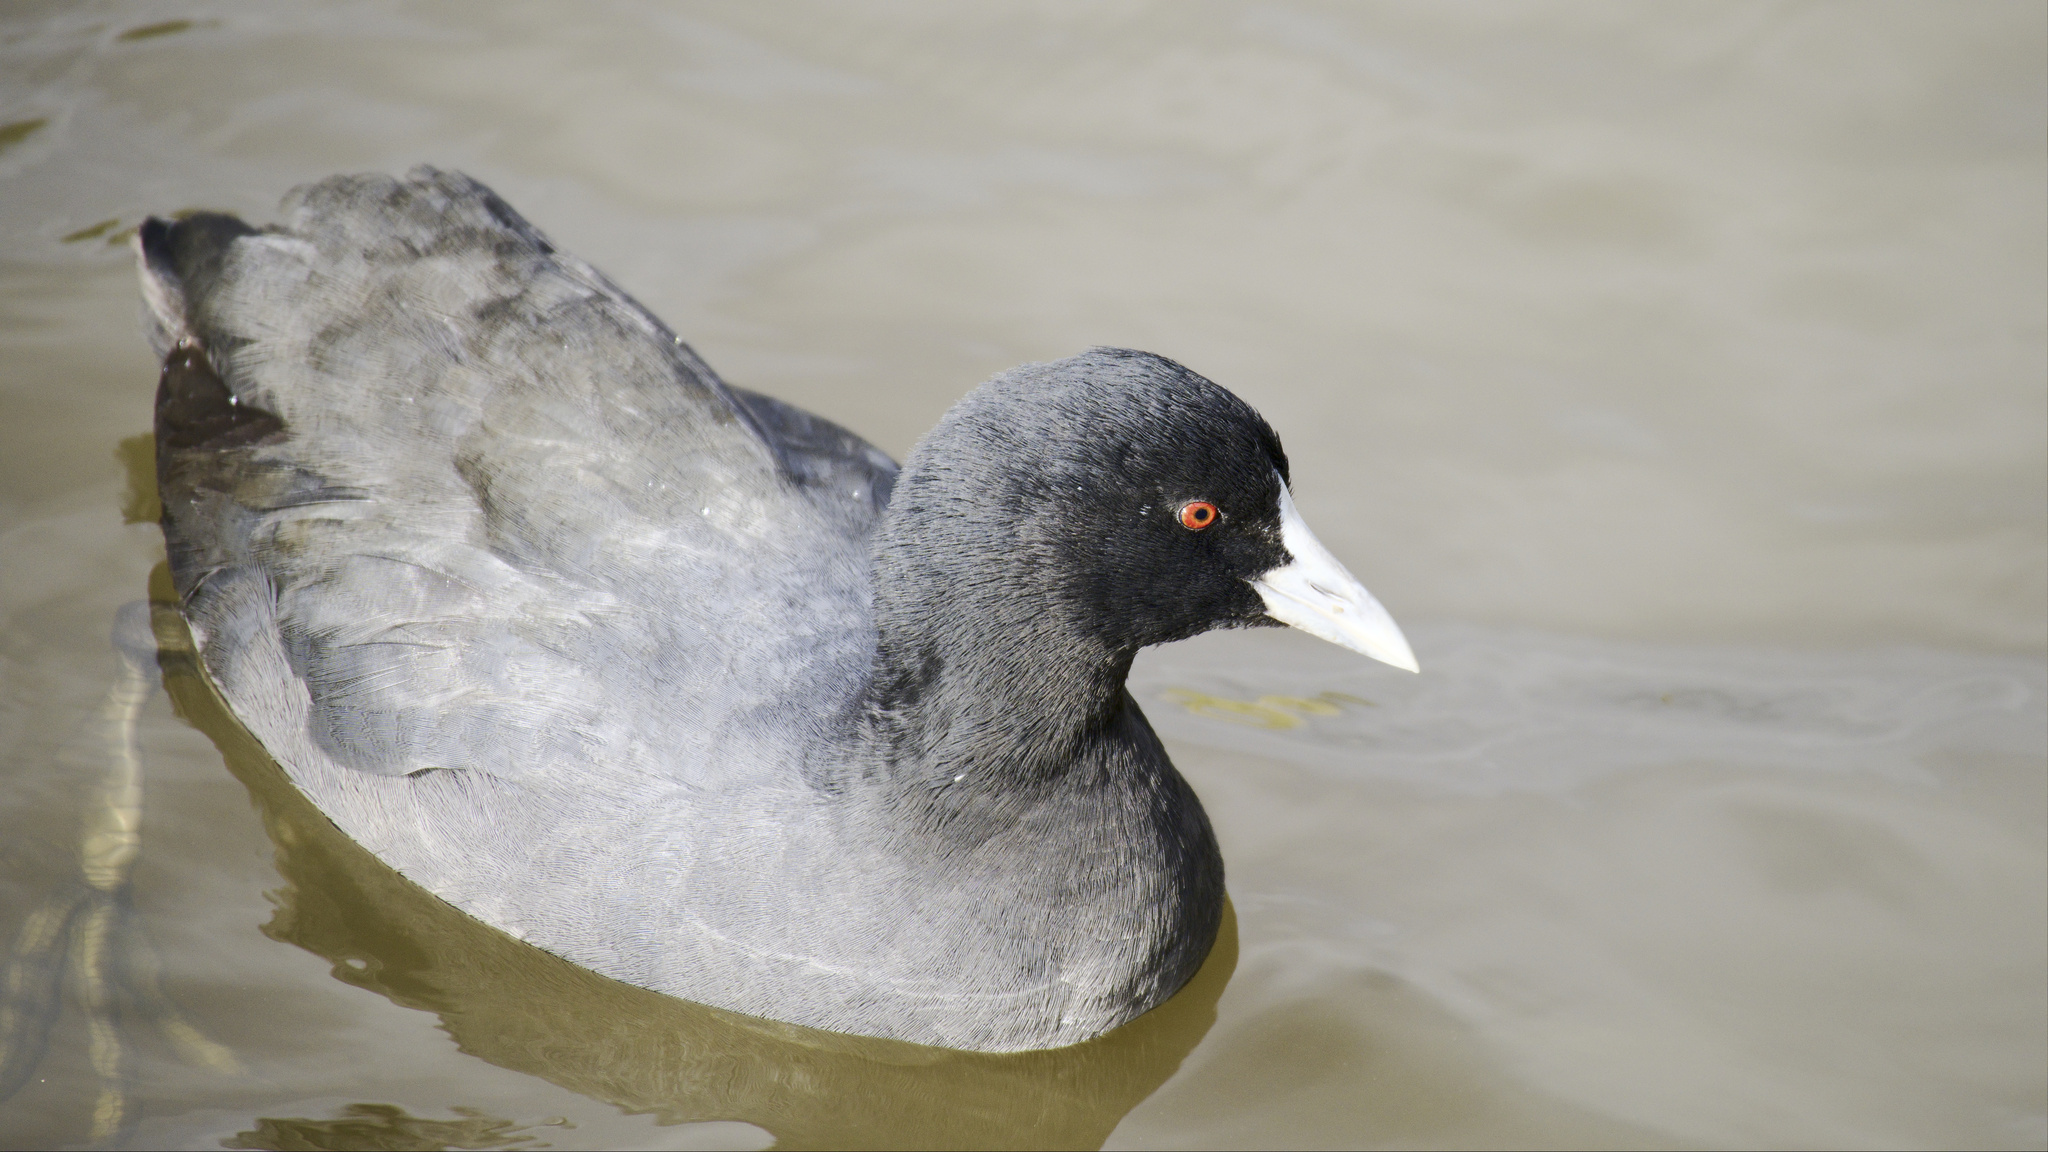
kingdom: Animalia
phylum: Chordata
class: Aves
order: Gruiformes
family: Rallidae
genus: Fulica
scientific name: Fulica atra
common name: Eurasian coot
